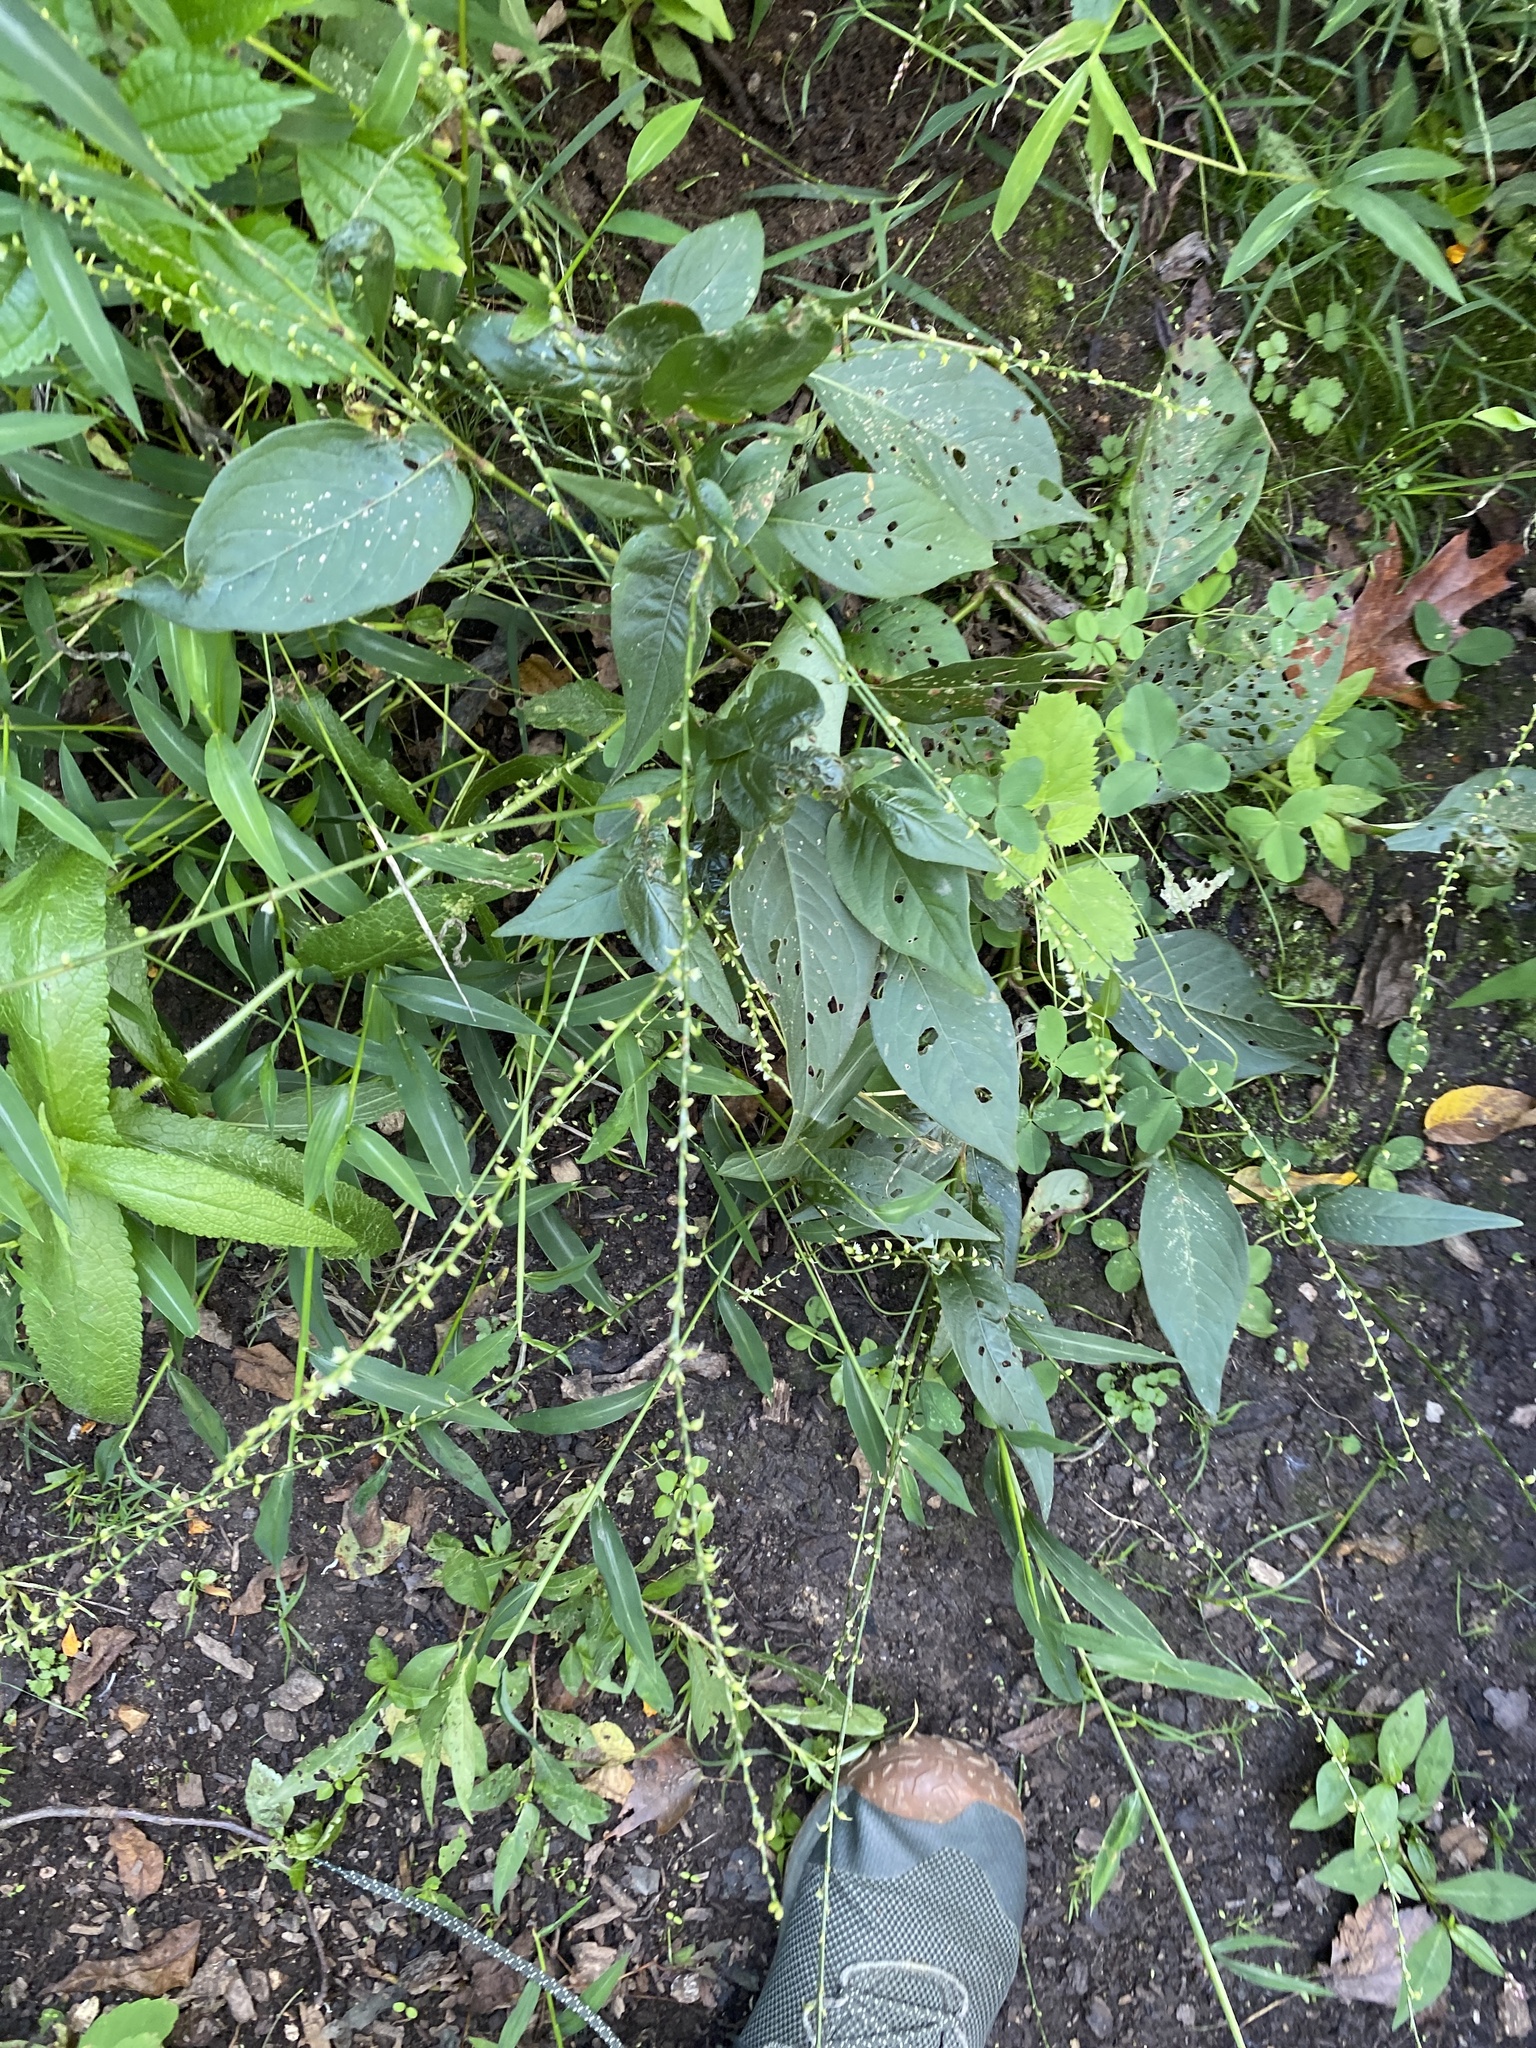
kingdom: Plantae
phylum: Tracheophyta
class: Magnoliopsida
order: Caryophyllales
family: Polygonaceae
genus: Persicaria
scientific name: Persicaria virginiana
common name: Jumpseed
